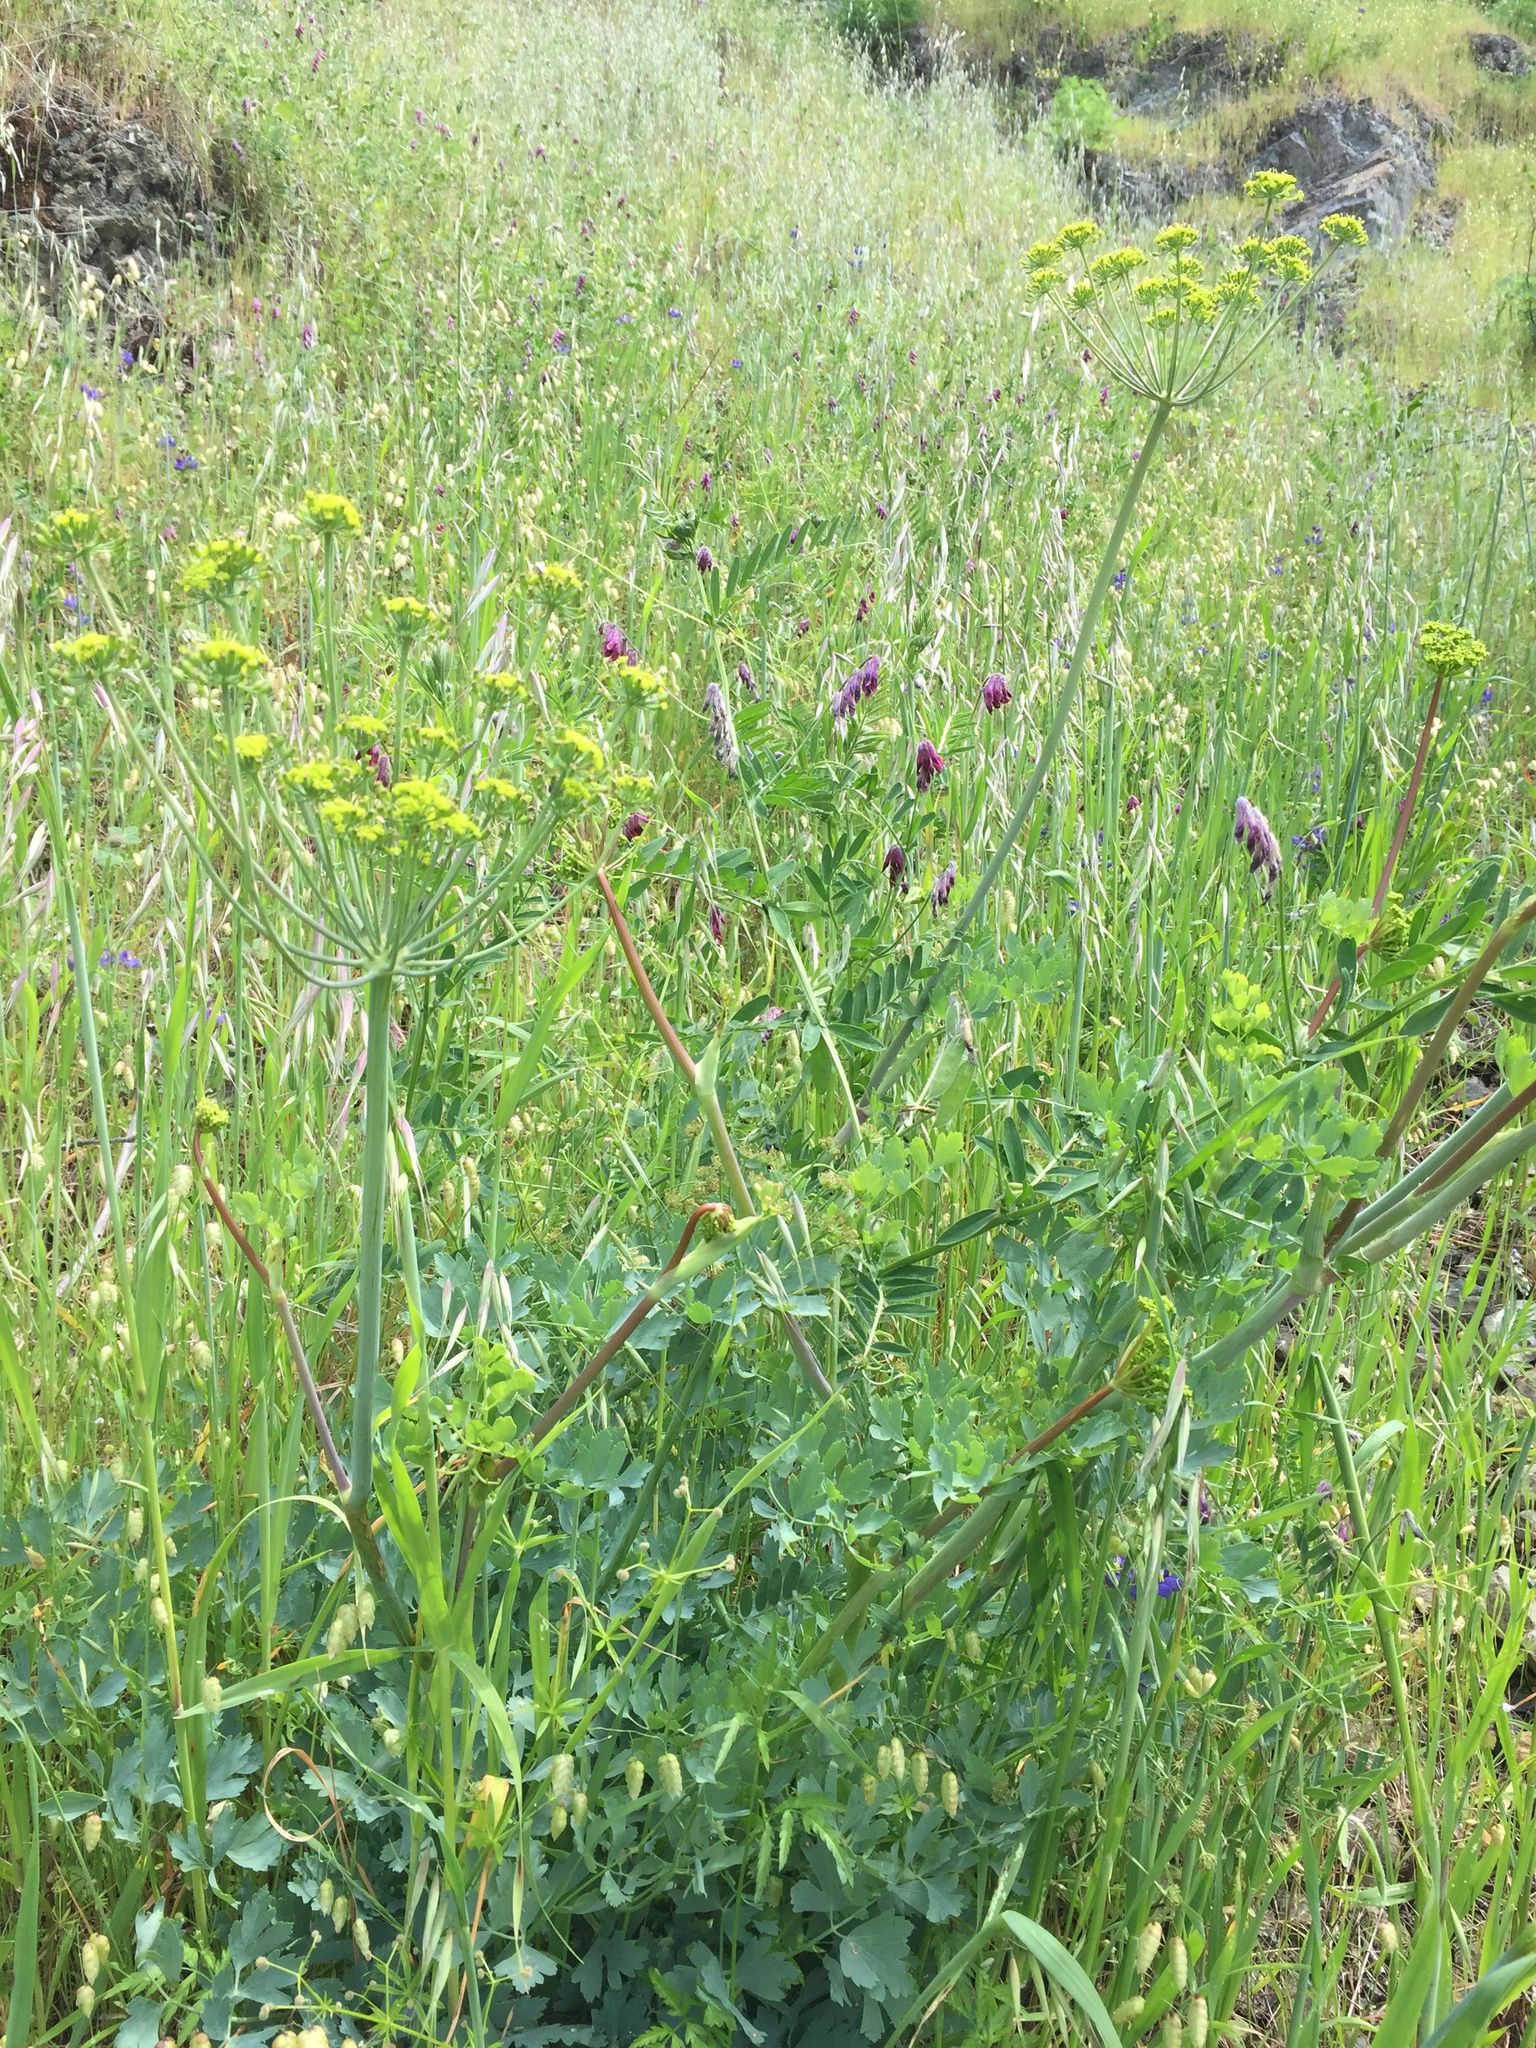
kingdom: Plantae
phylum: Tracheophyta
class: Magnoliopsida
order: Apiales
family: Apiaceae
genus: Lomatium
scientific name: Lomatium californicum
